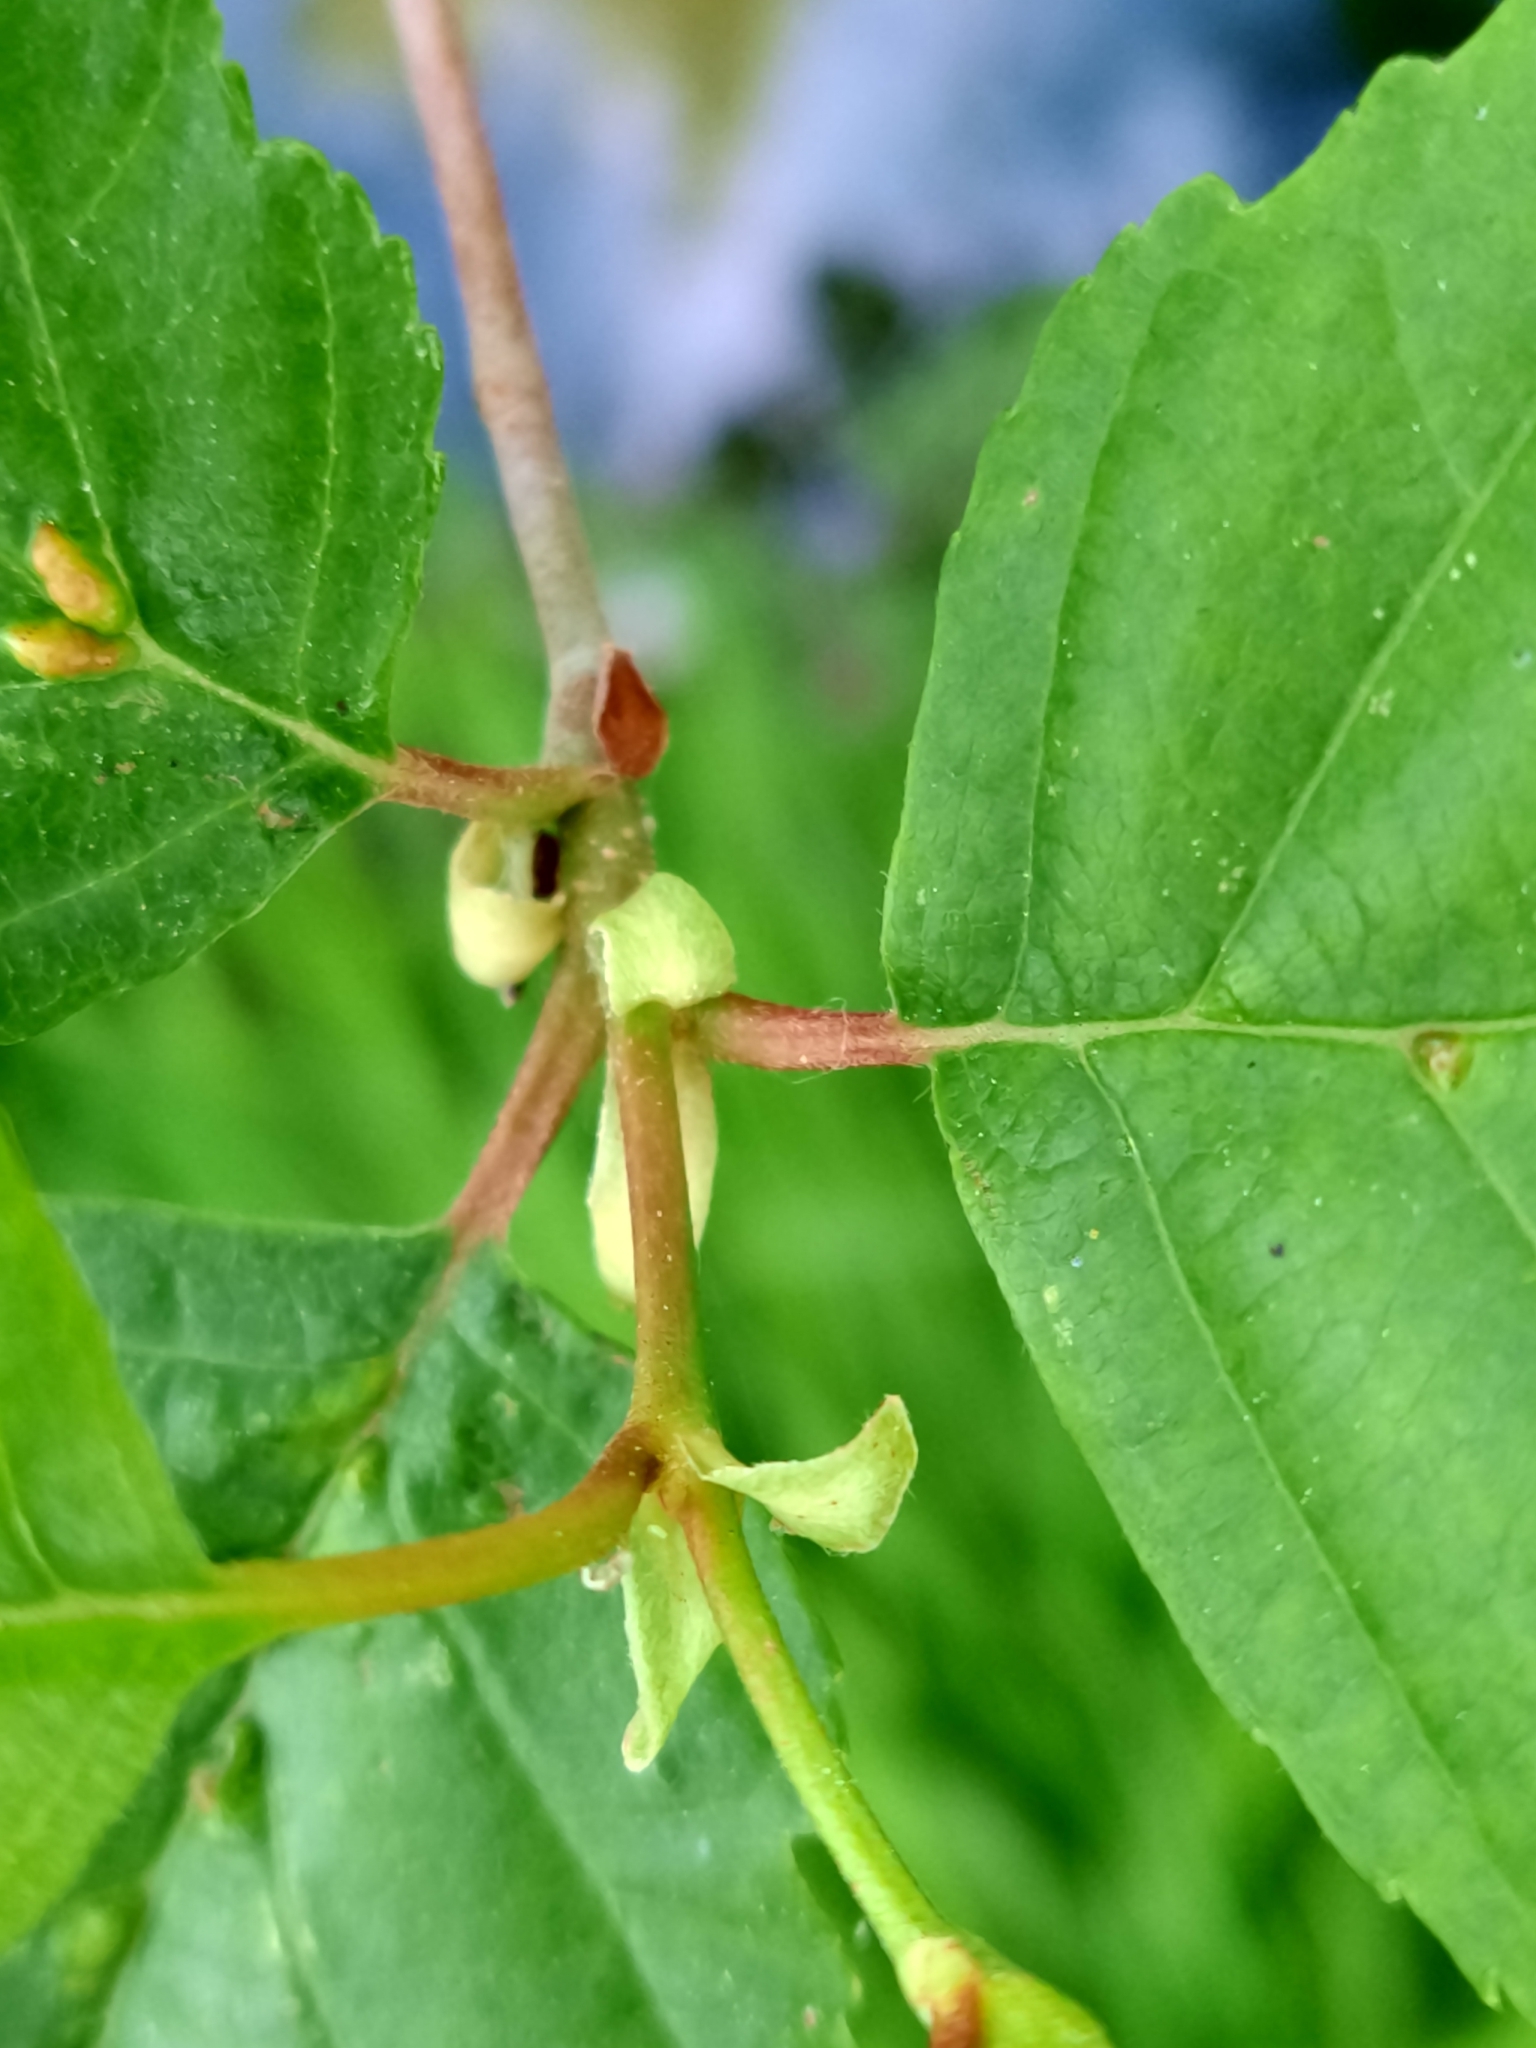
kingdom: Plantae
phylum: Tracheophyta
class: Magnoliopsida
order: Fagales
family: Betulaceae
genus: Alnus
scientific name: Alnus lusitanica
